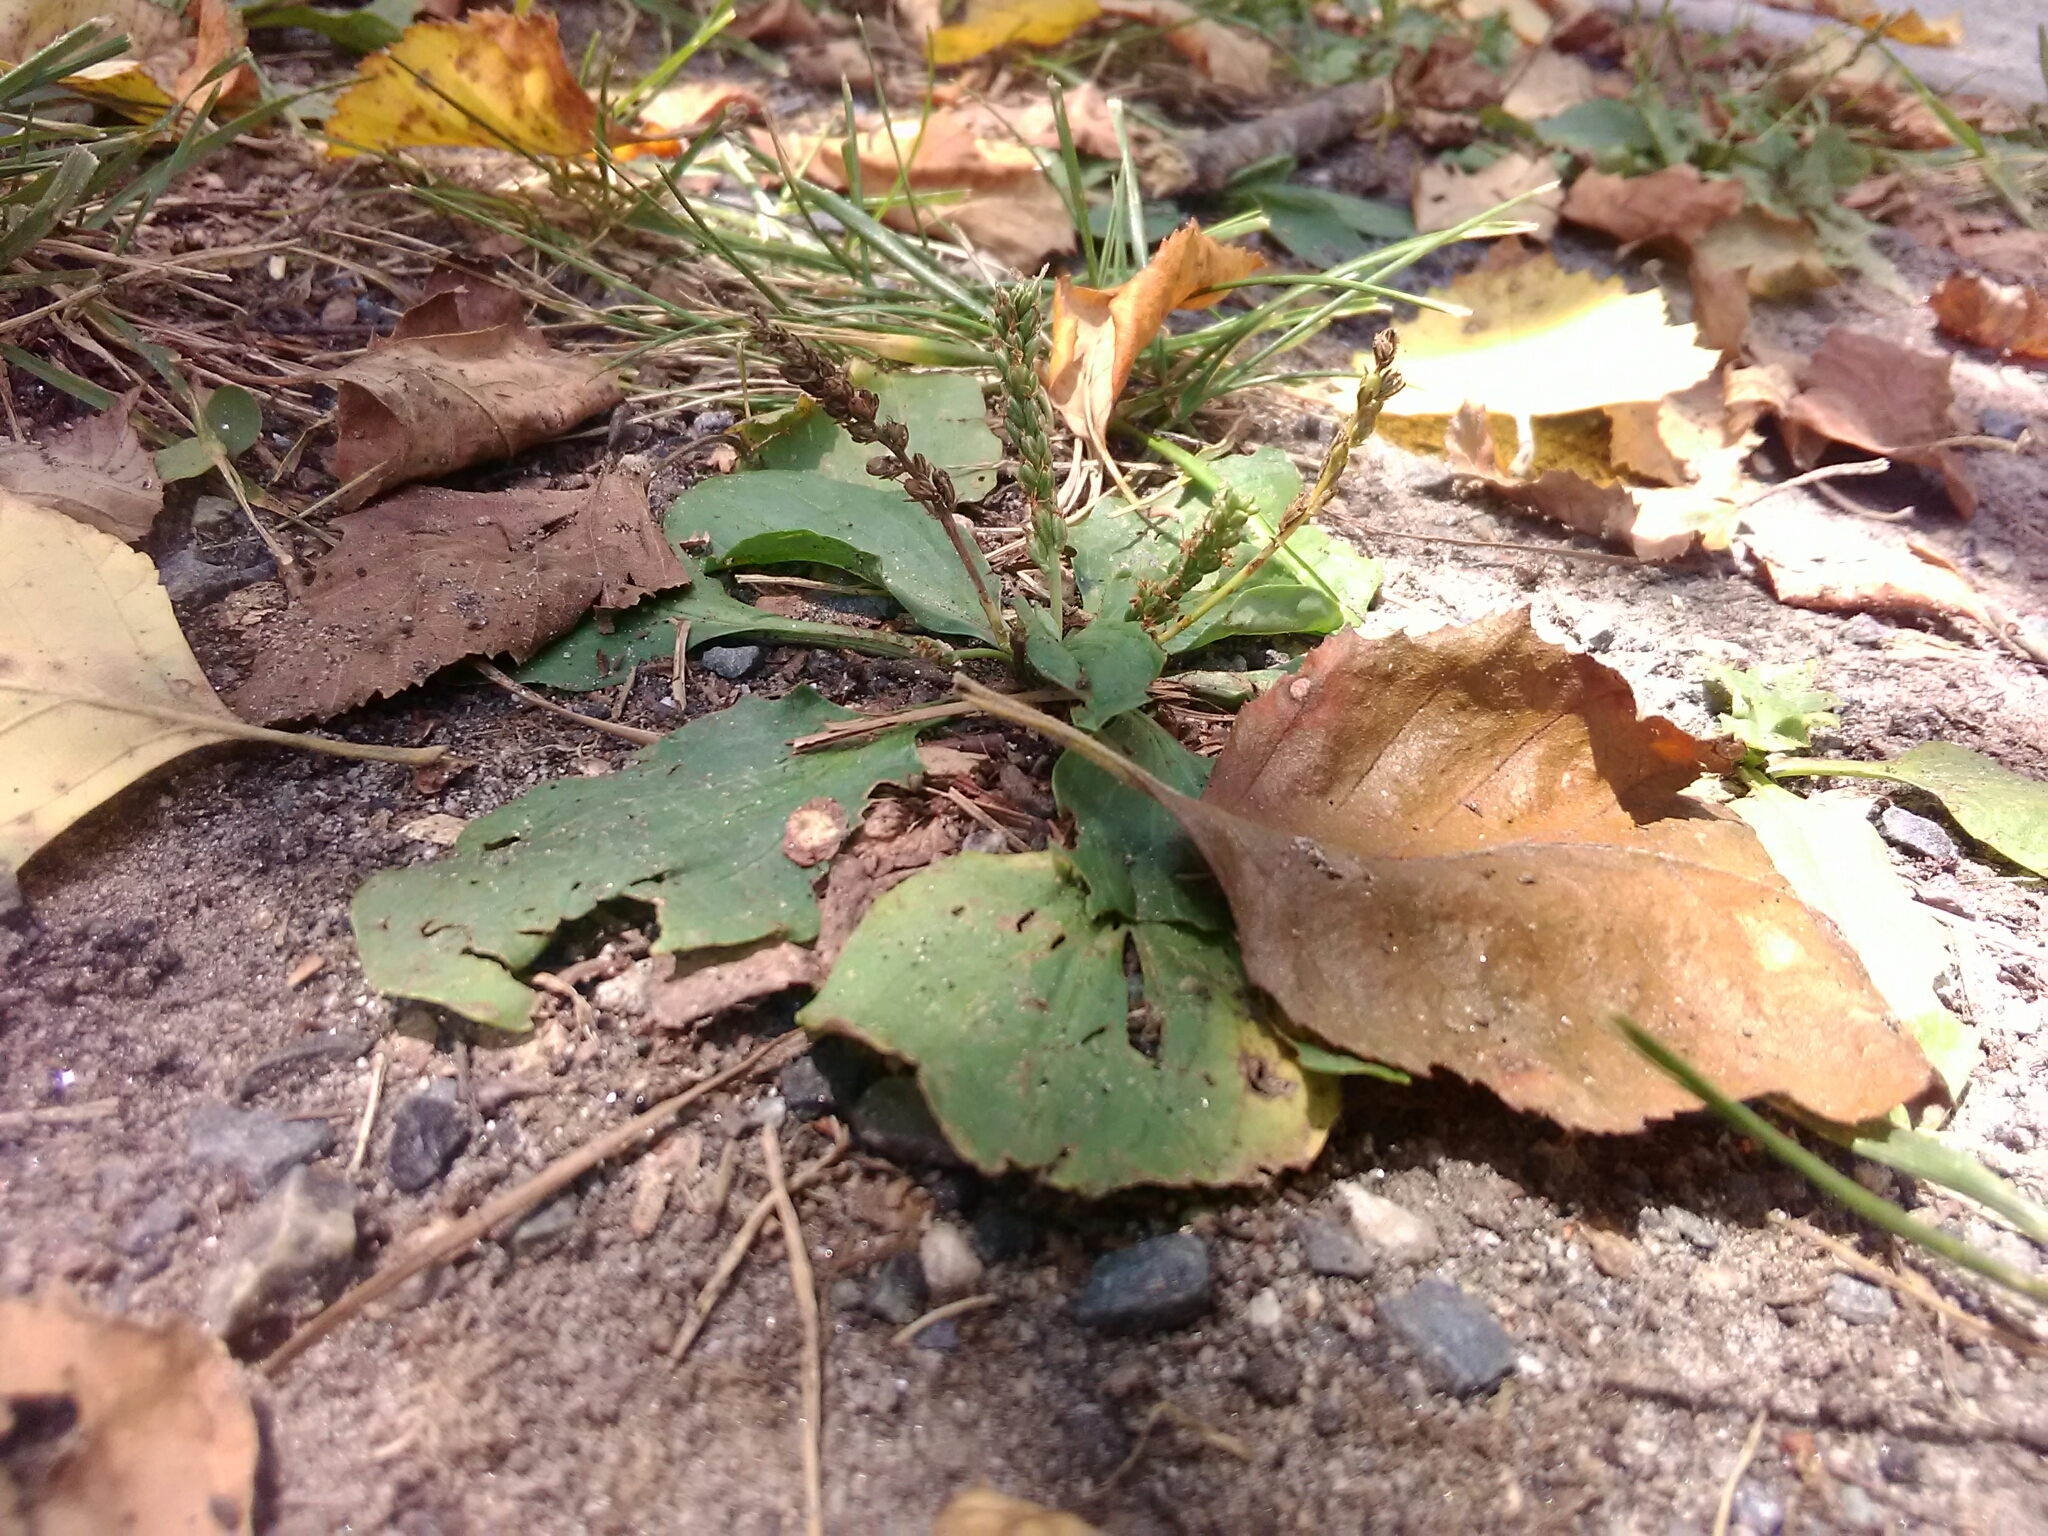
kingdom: Plantae
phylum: Tracheophyta
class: Magnoliopsida
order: Lamiales
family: Plantaginaceae
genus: Plantago
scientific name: Plantago major
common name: Common plantain
